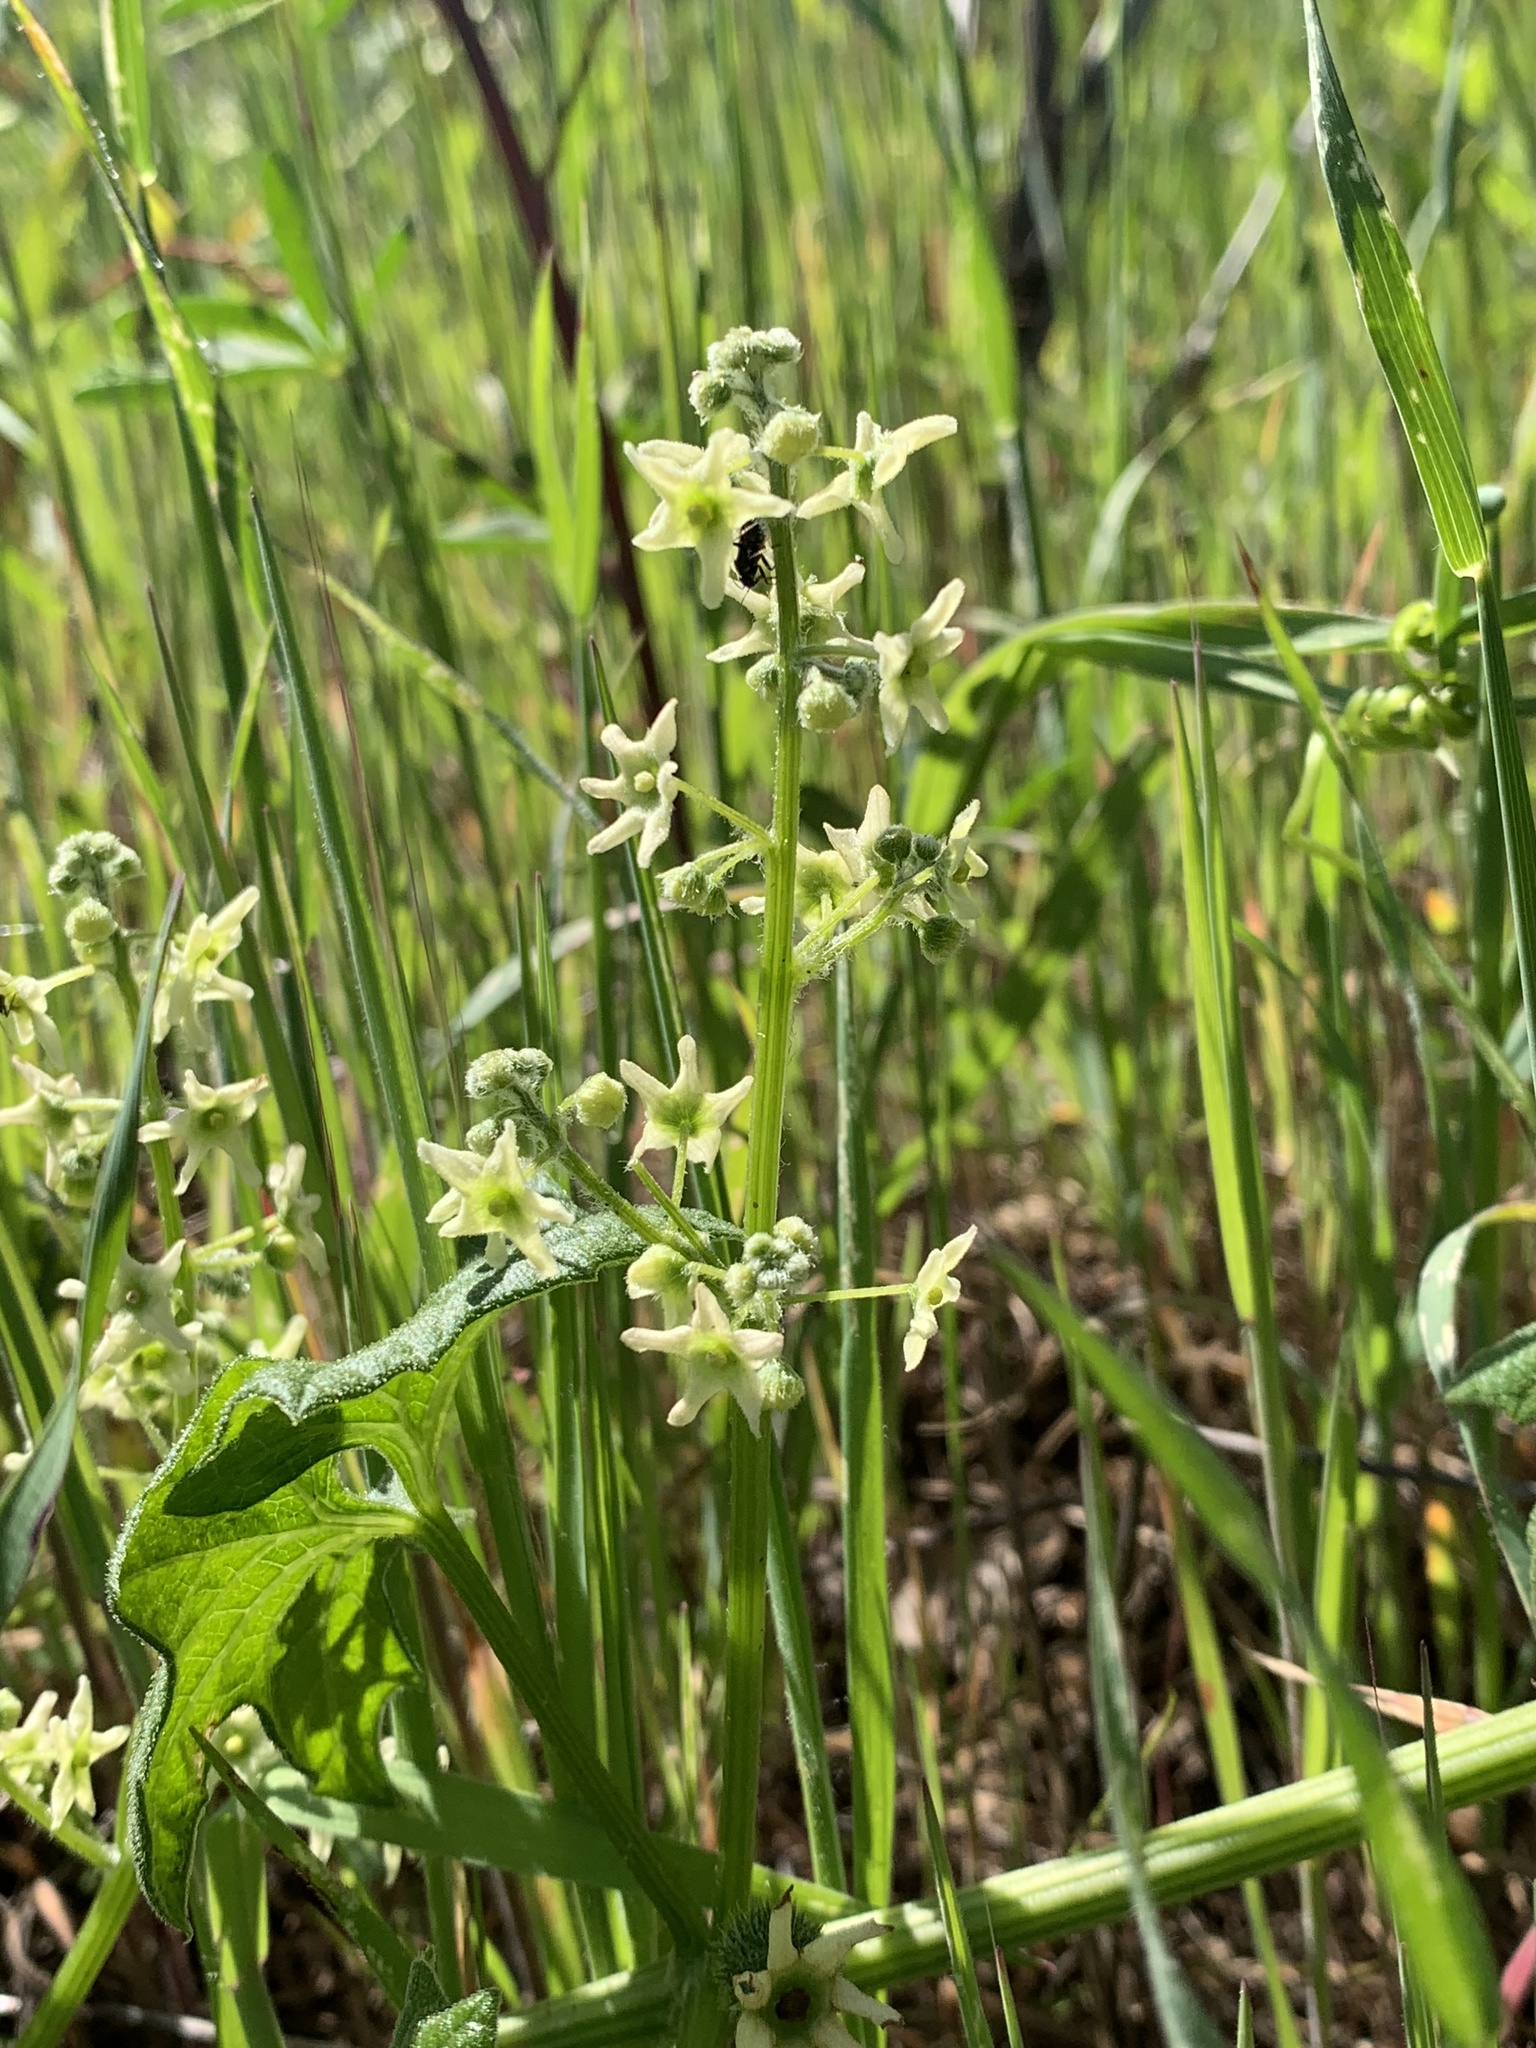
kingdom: Plantae
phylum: Tracheophyta
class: Magnoliopsida
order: Cucurbitales
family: Cucurbitaceae
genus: Marah
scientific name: Marah fabacea
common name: California manroot
